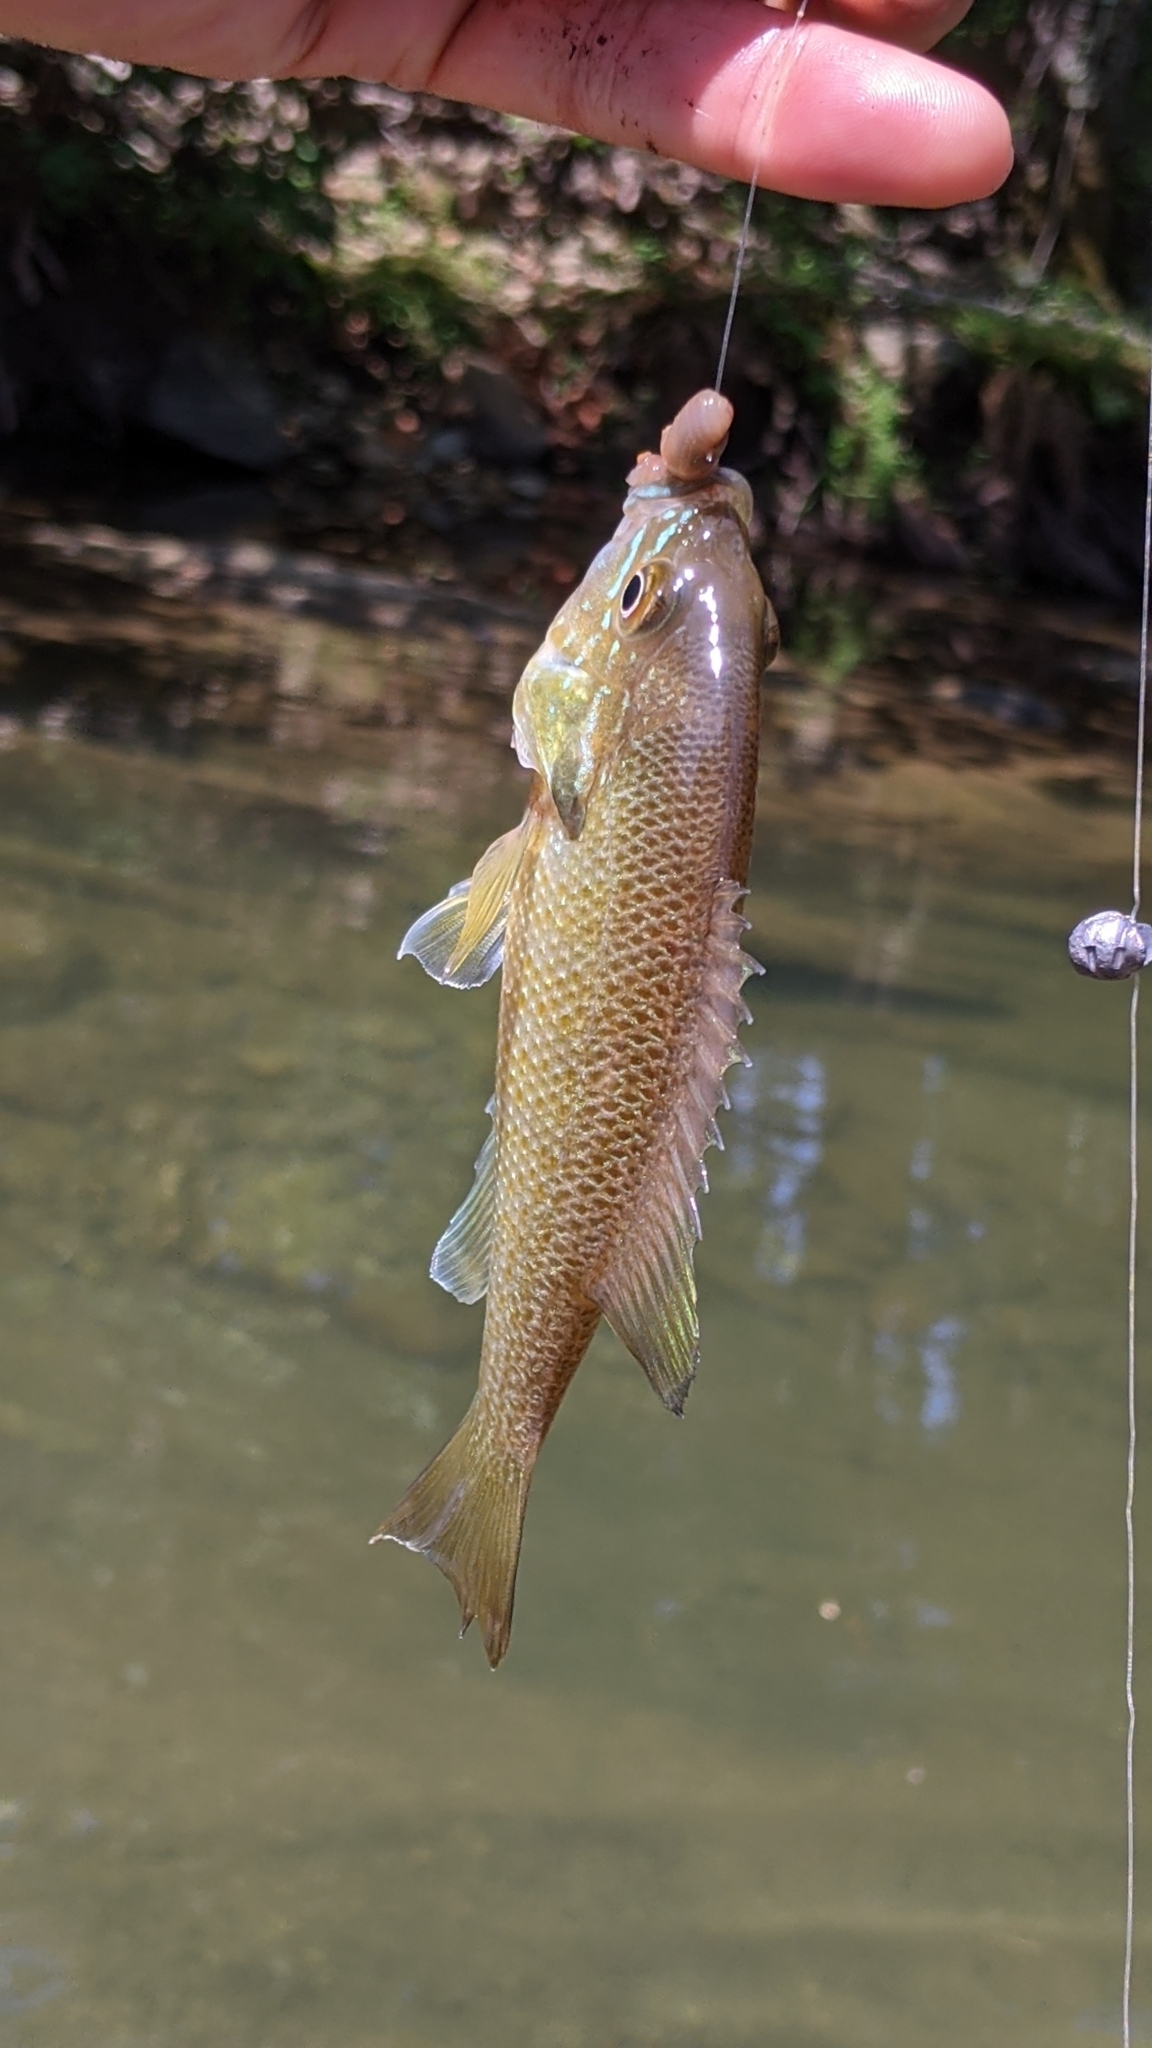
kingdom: Animalia
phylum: Chordata
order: Perciformes
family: Centrarchidae
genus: Lepomis
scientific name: Lepomis auritus
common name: Redbreast sunfish
